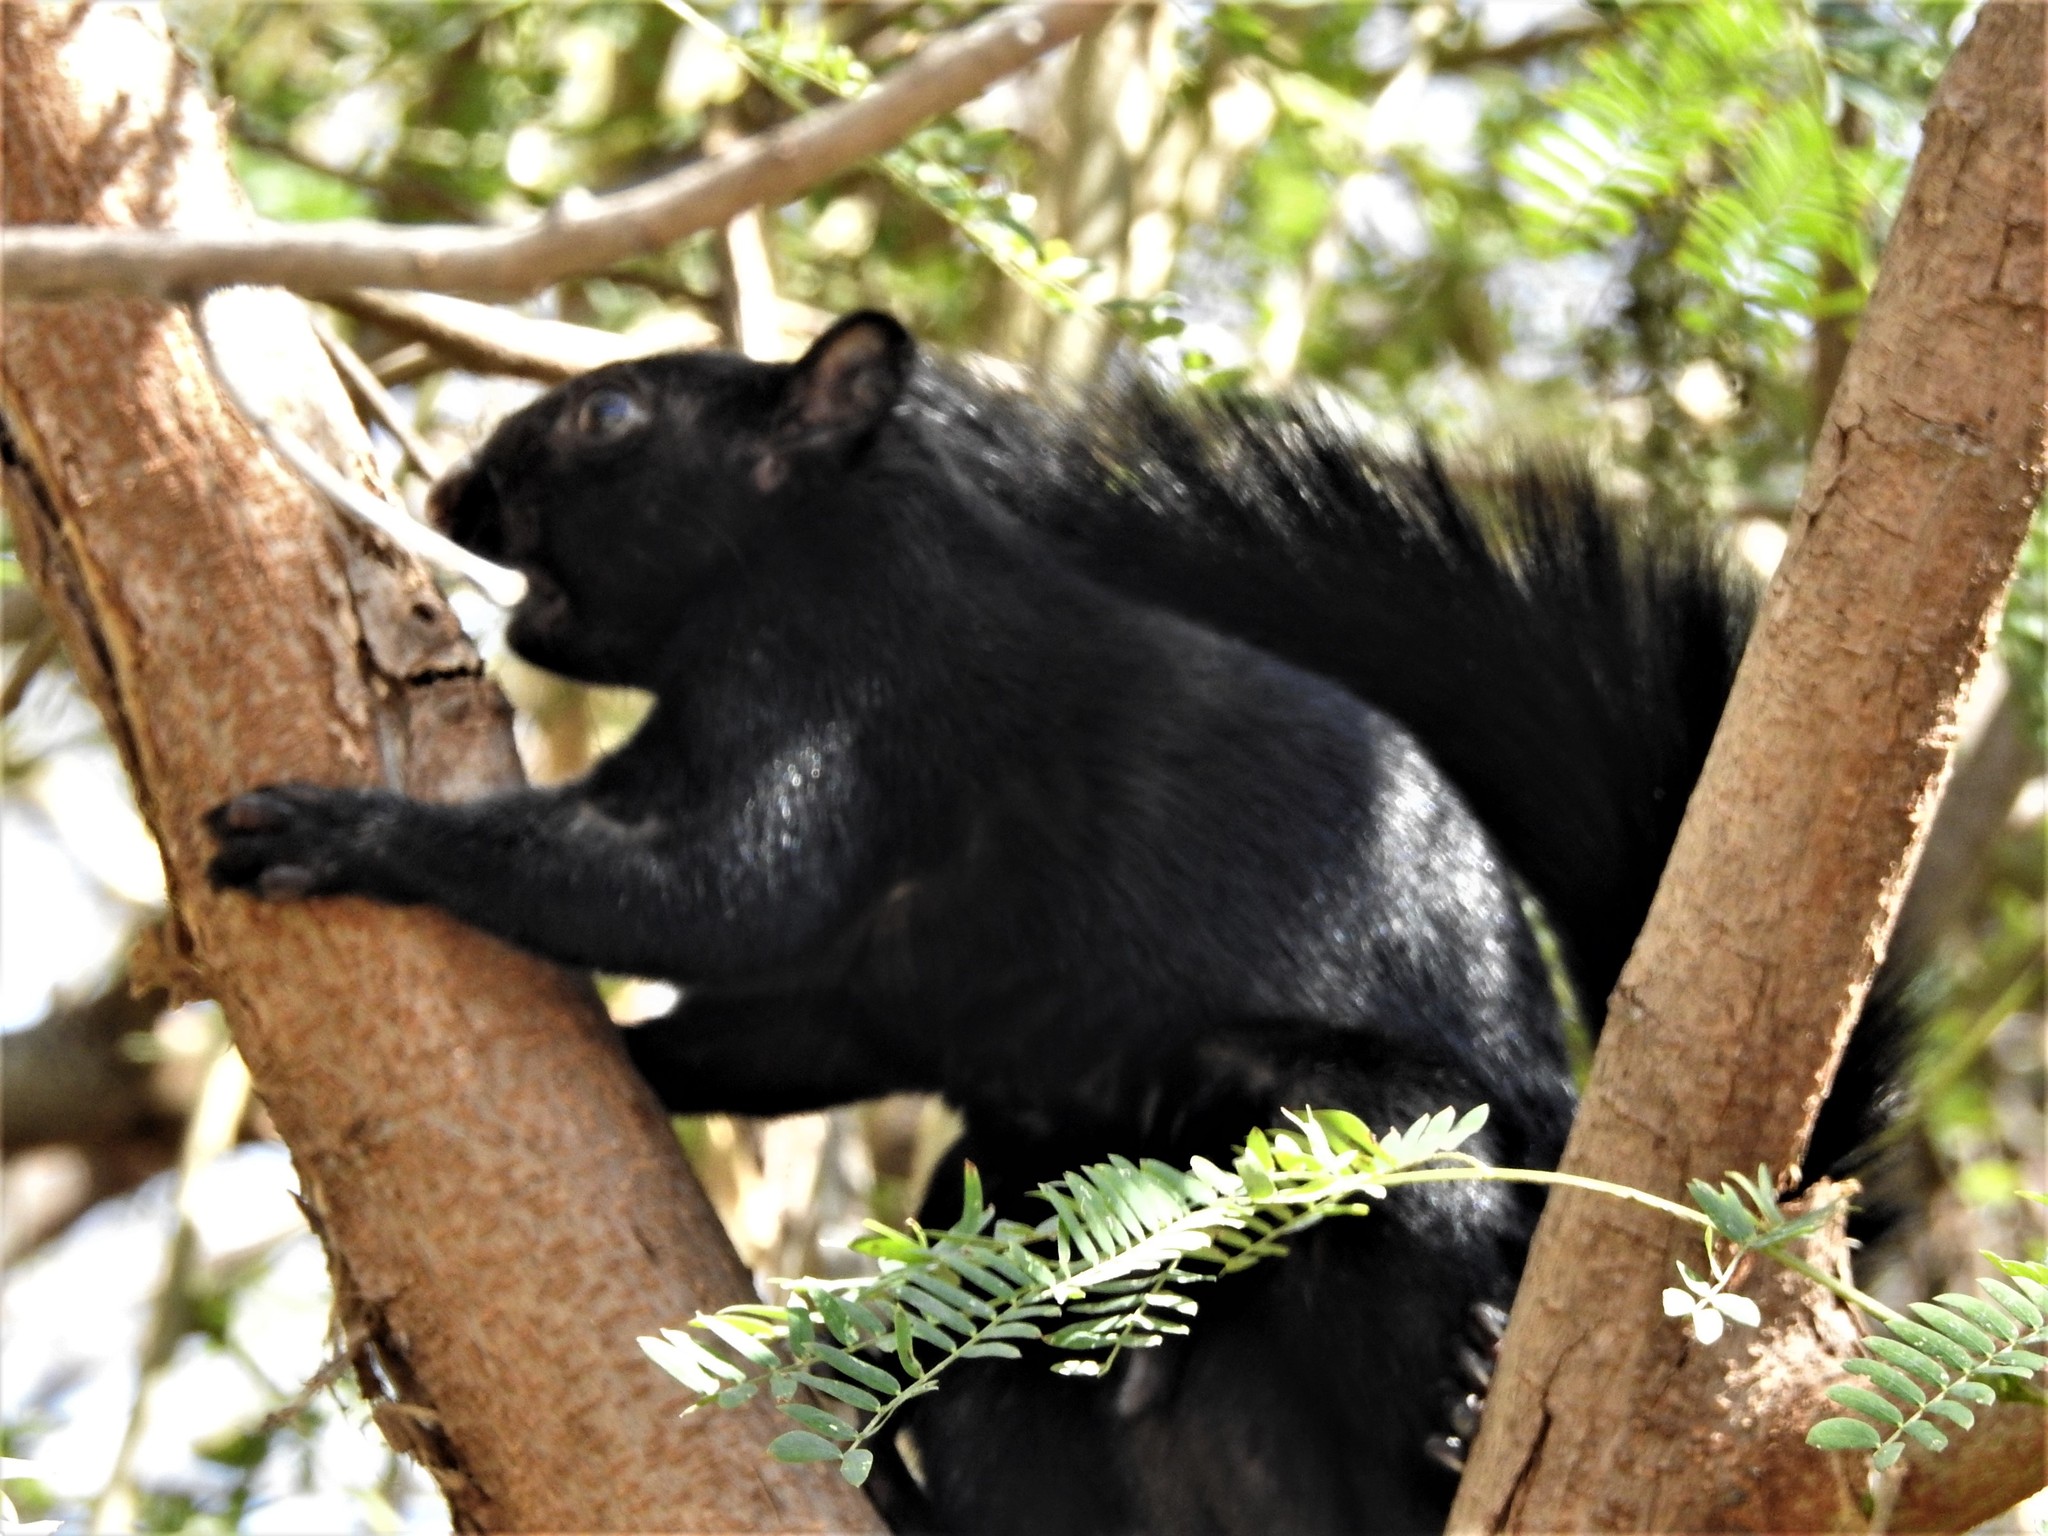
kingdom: Animalia
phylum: Chordata
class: Mammalia
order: Rodentia
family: Sciuridae
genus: Sciurus
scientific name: Sciurus aureogaster
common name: Red-bellied squirrel
